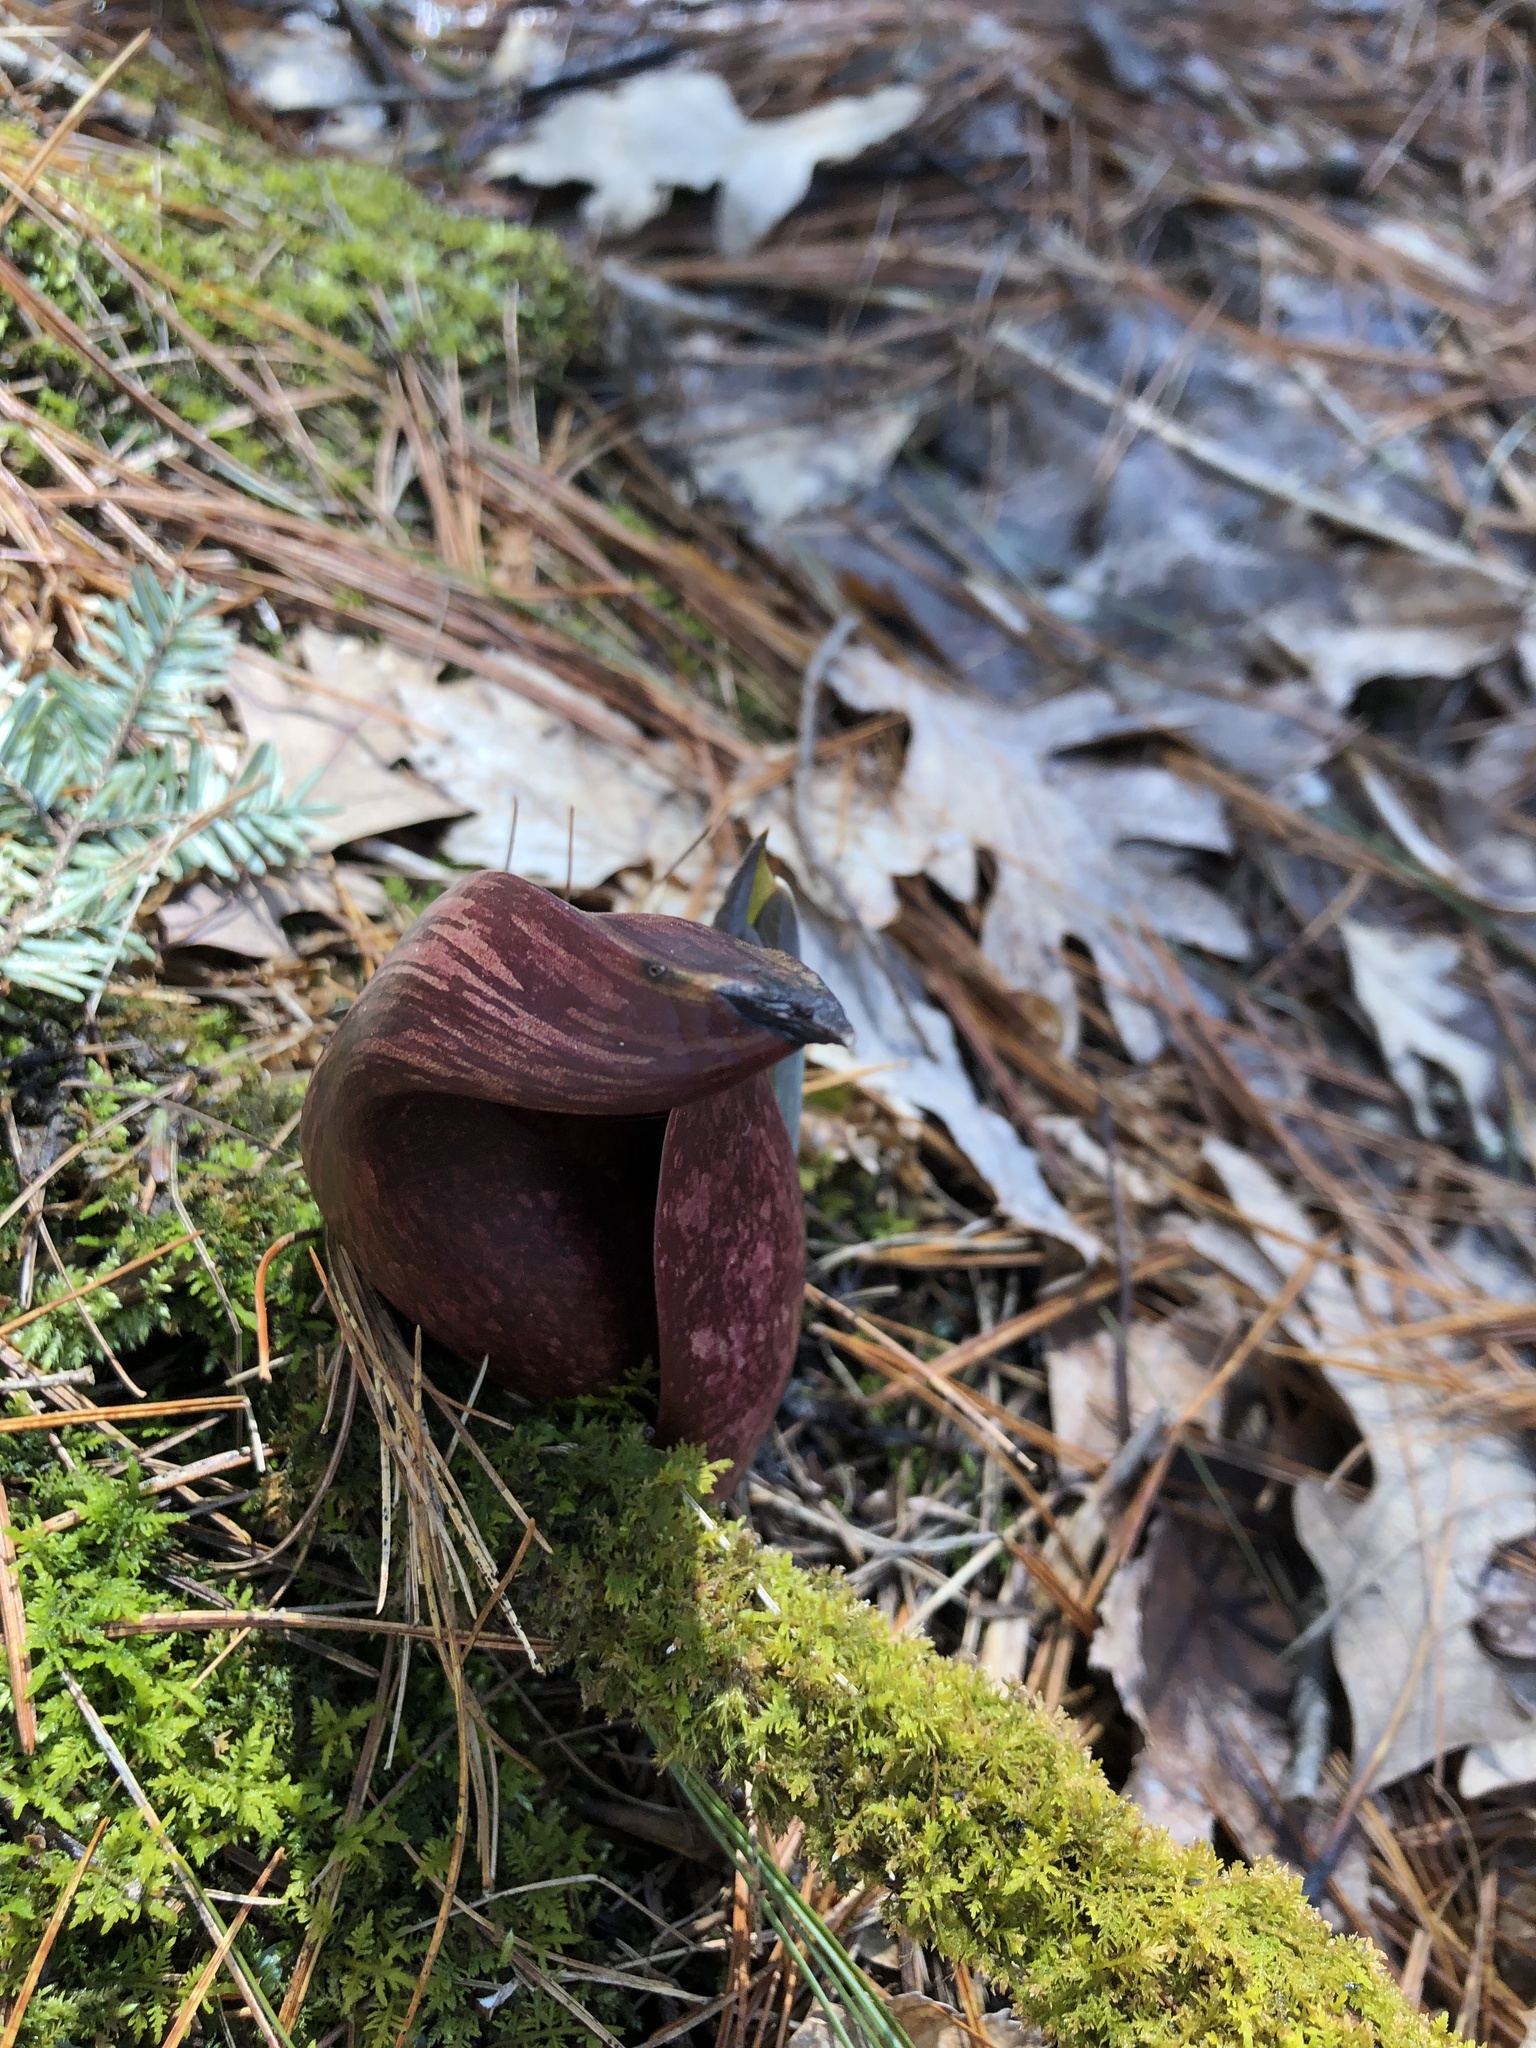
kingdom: Plantae
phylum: Tracheophyta
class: Liliopsida
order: Alismatales
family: Araceae
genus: Symplocarpus
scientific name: Symplocarpus foetidus
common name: Eastern skunk cabbage
